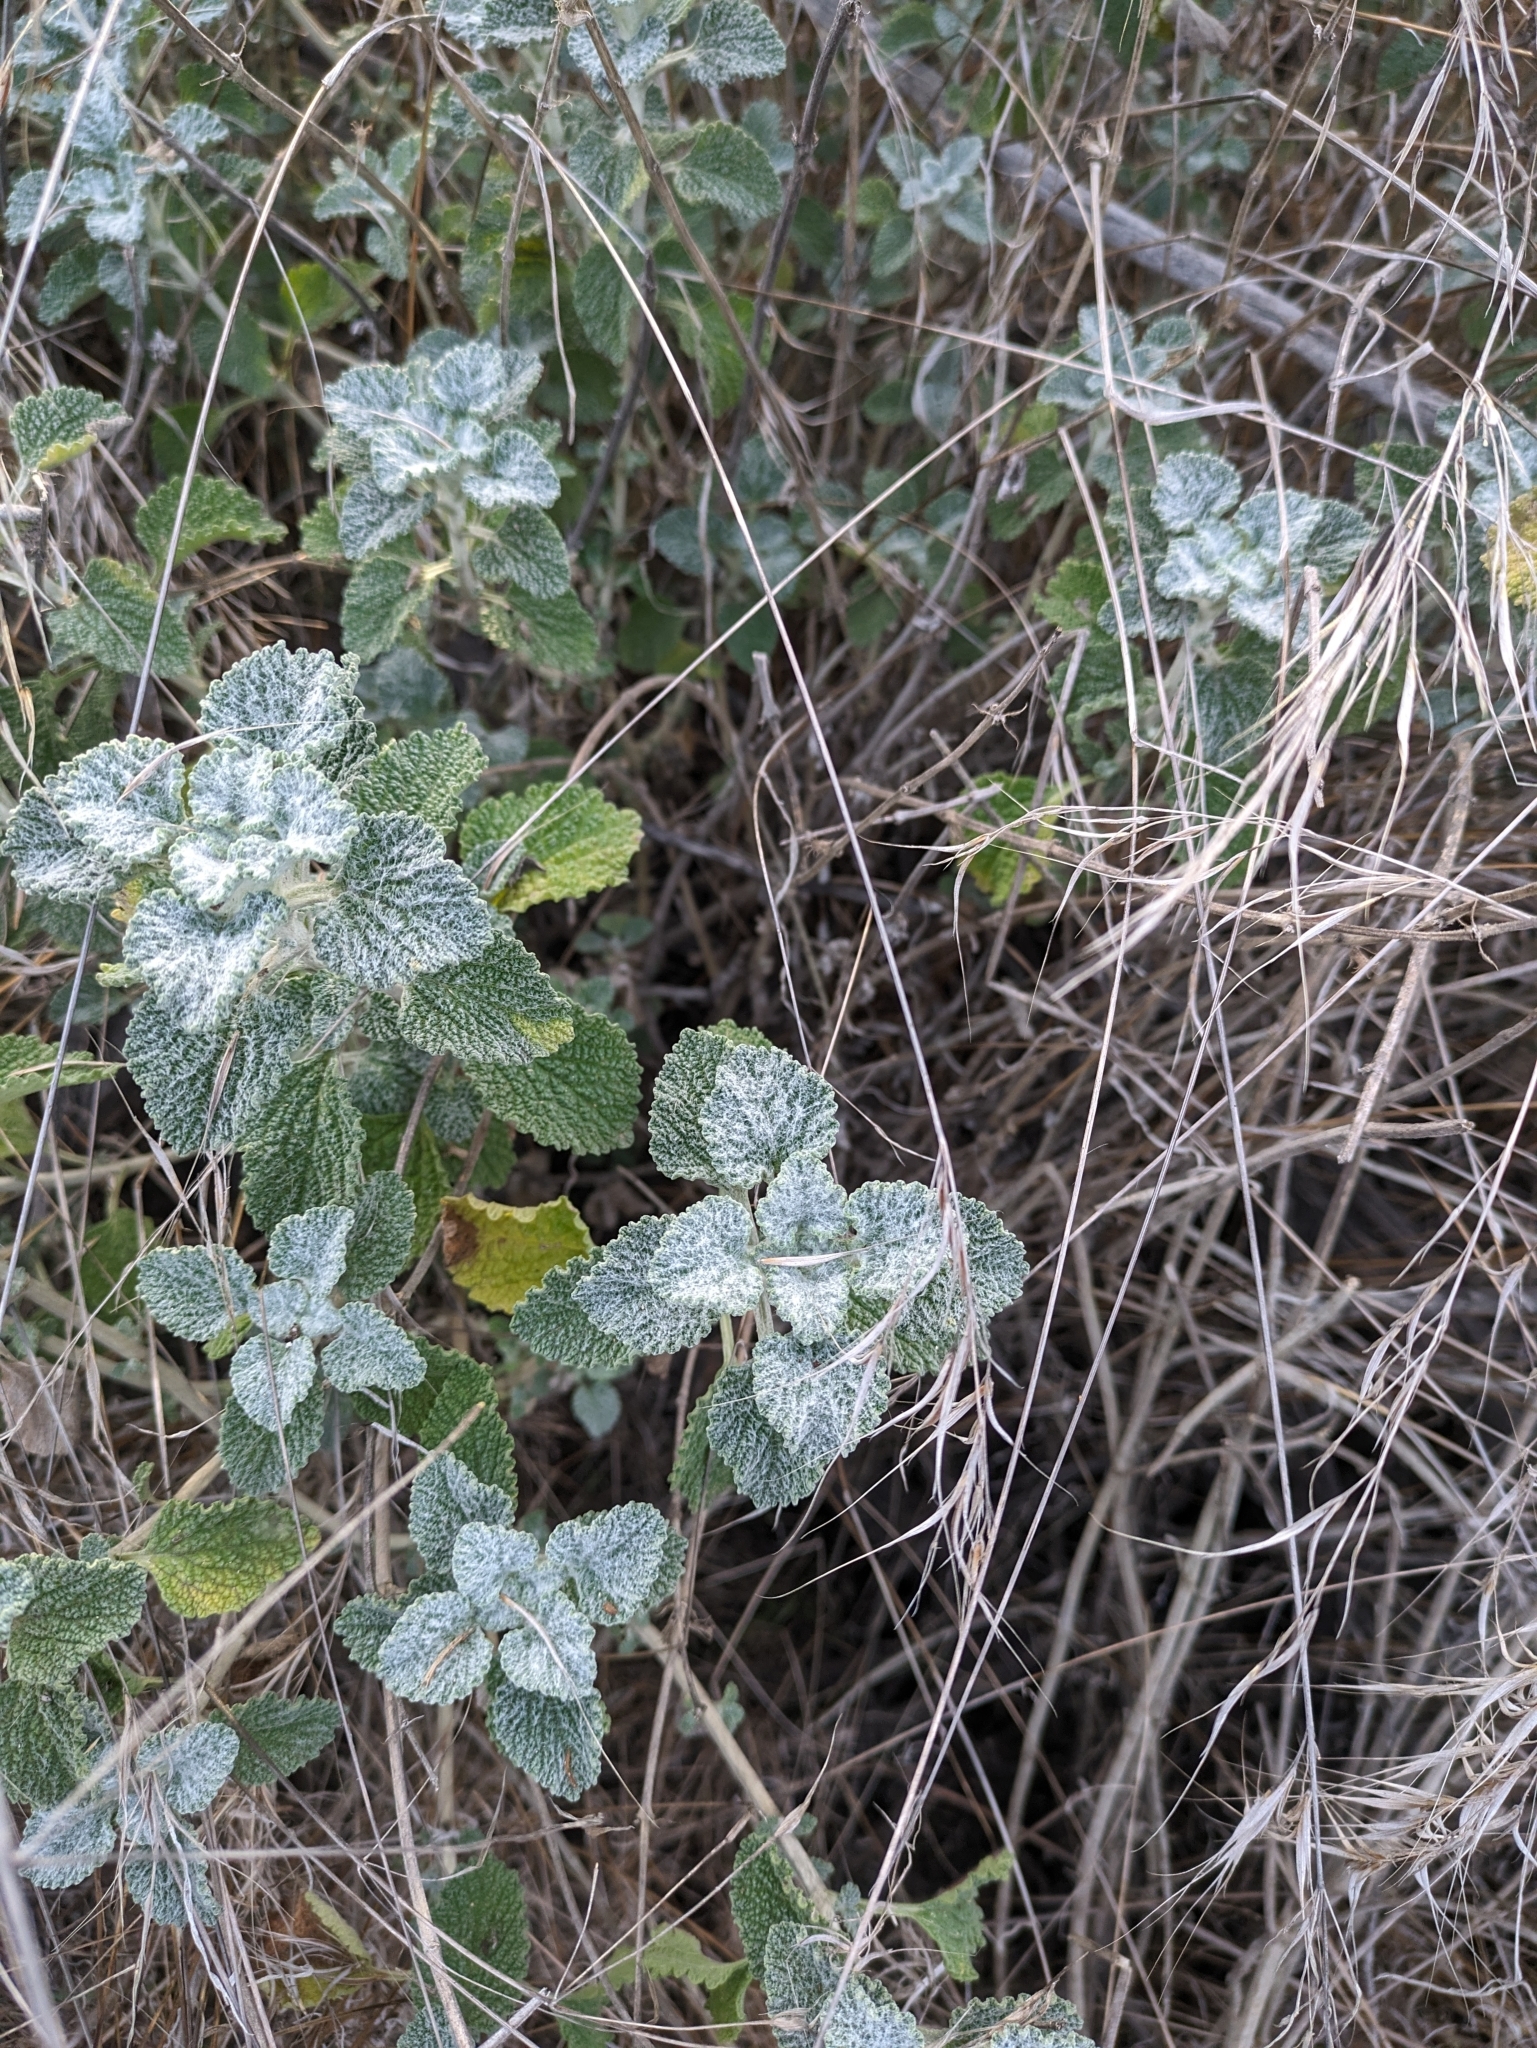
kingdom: Plantae
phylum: Tracheophyta
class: Magnoliopsida
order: Lamiales
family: Lamiaceae
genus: Marrubium
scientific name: Marrubium vulgare
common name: Horehound
